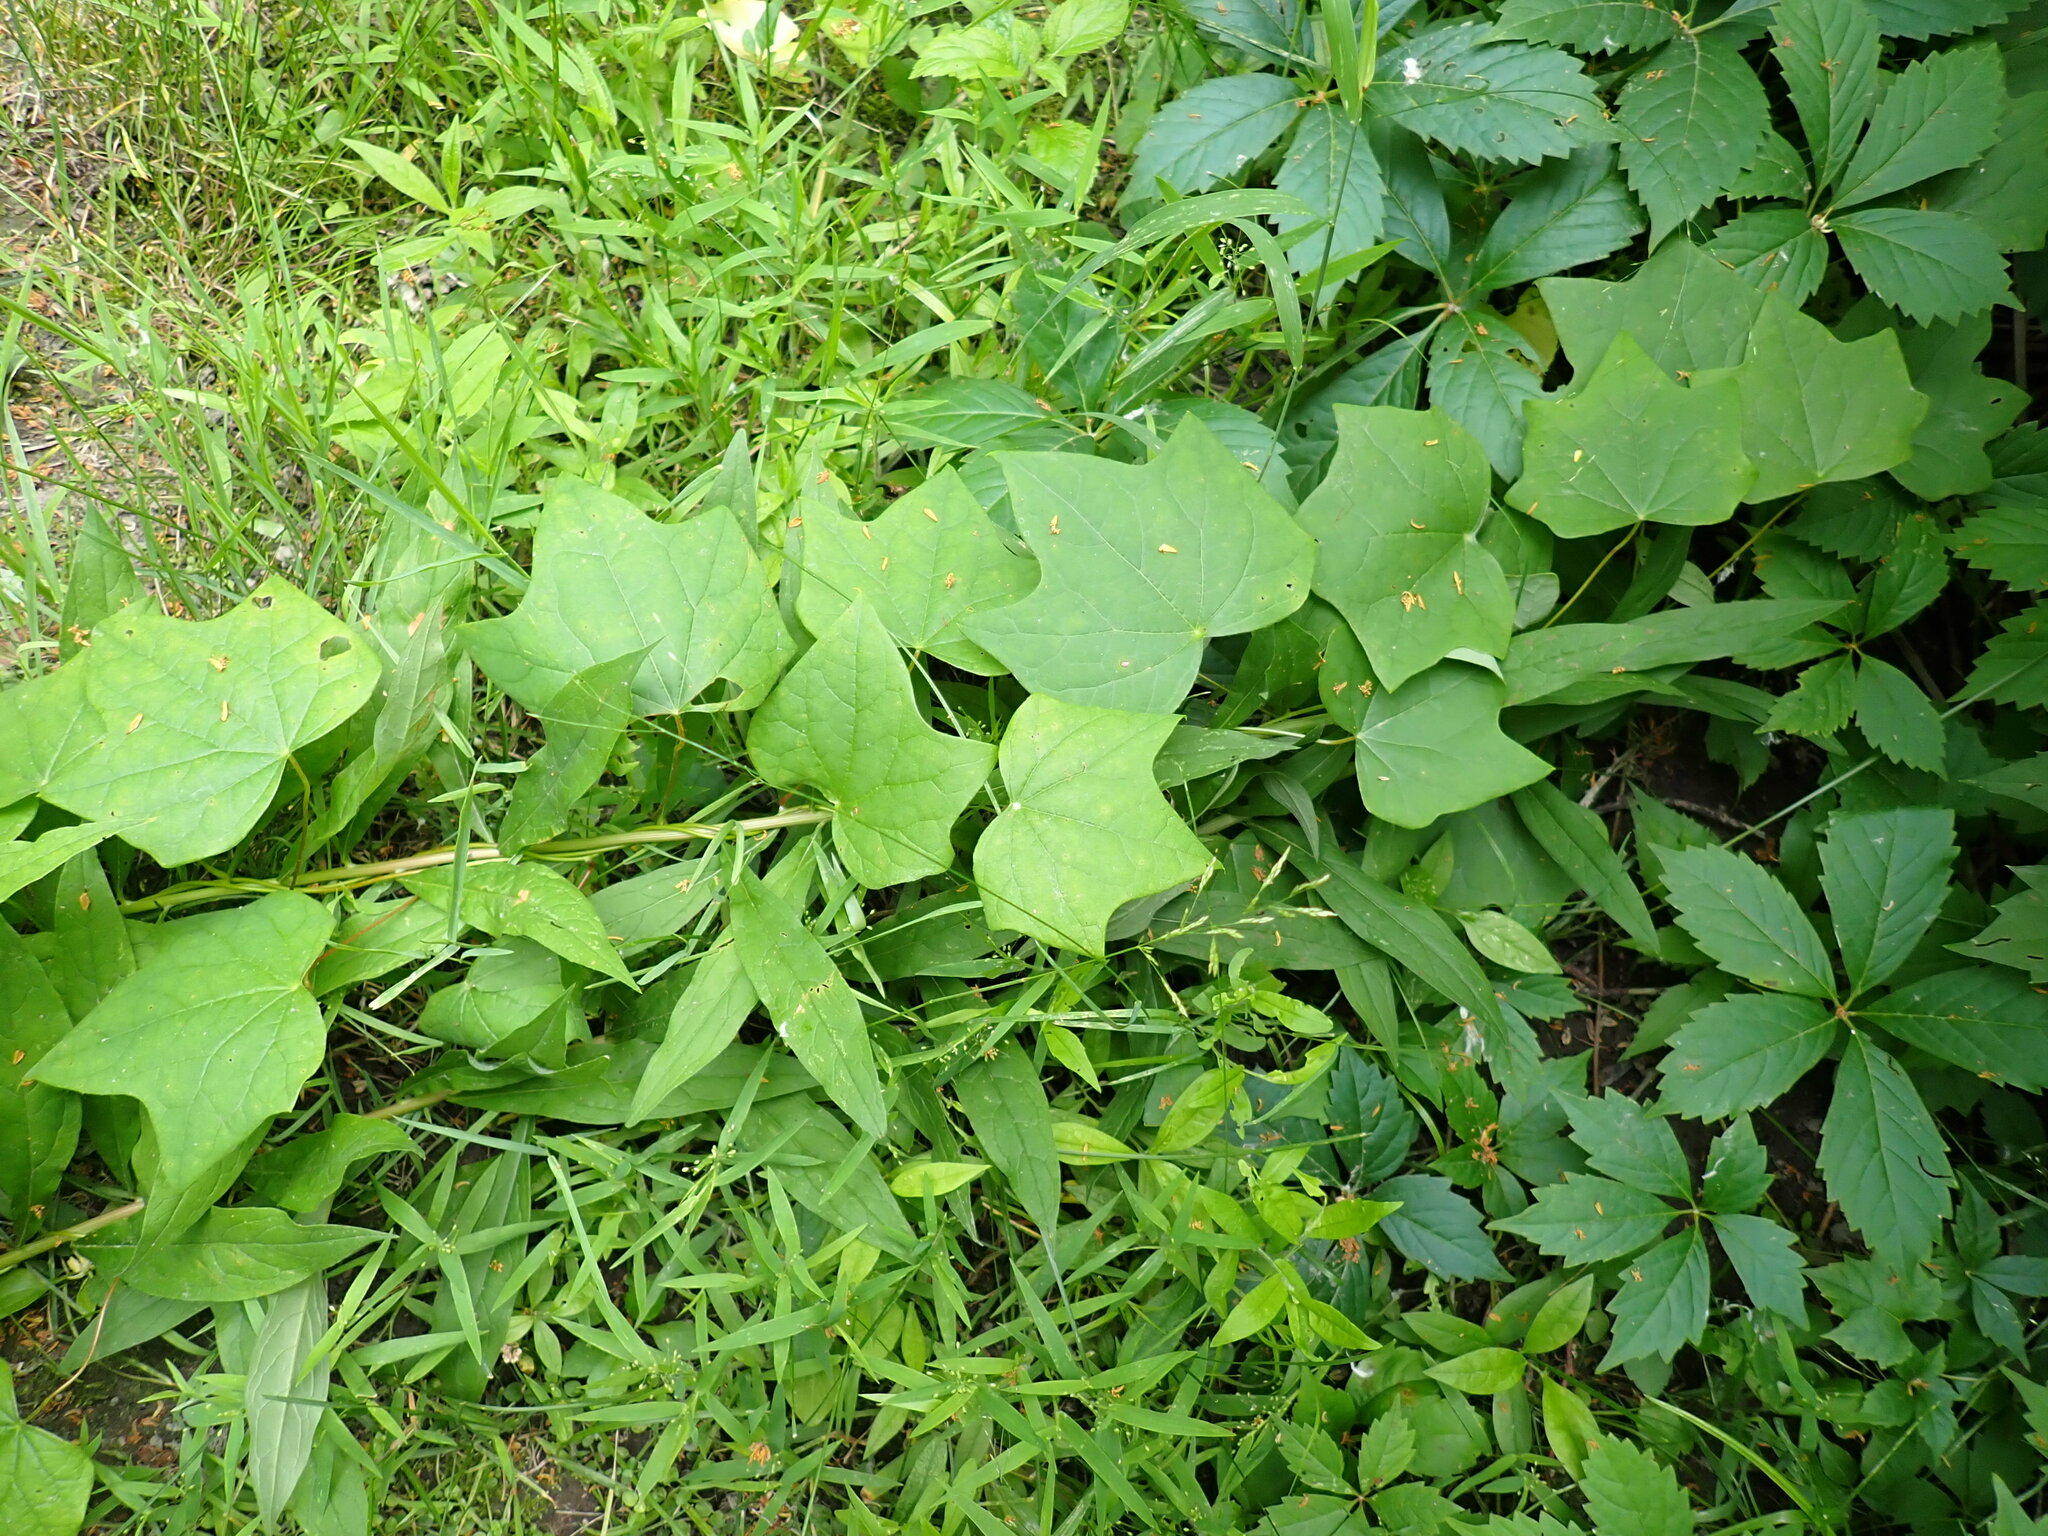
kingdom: Plantae
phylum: Tracheophyta
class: Magnoliopsida
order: Ranunculales
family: Menispermaceae
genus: Menispermum
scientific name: Menispermum canadense
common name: Moonseed
